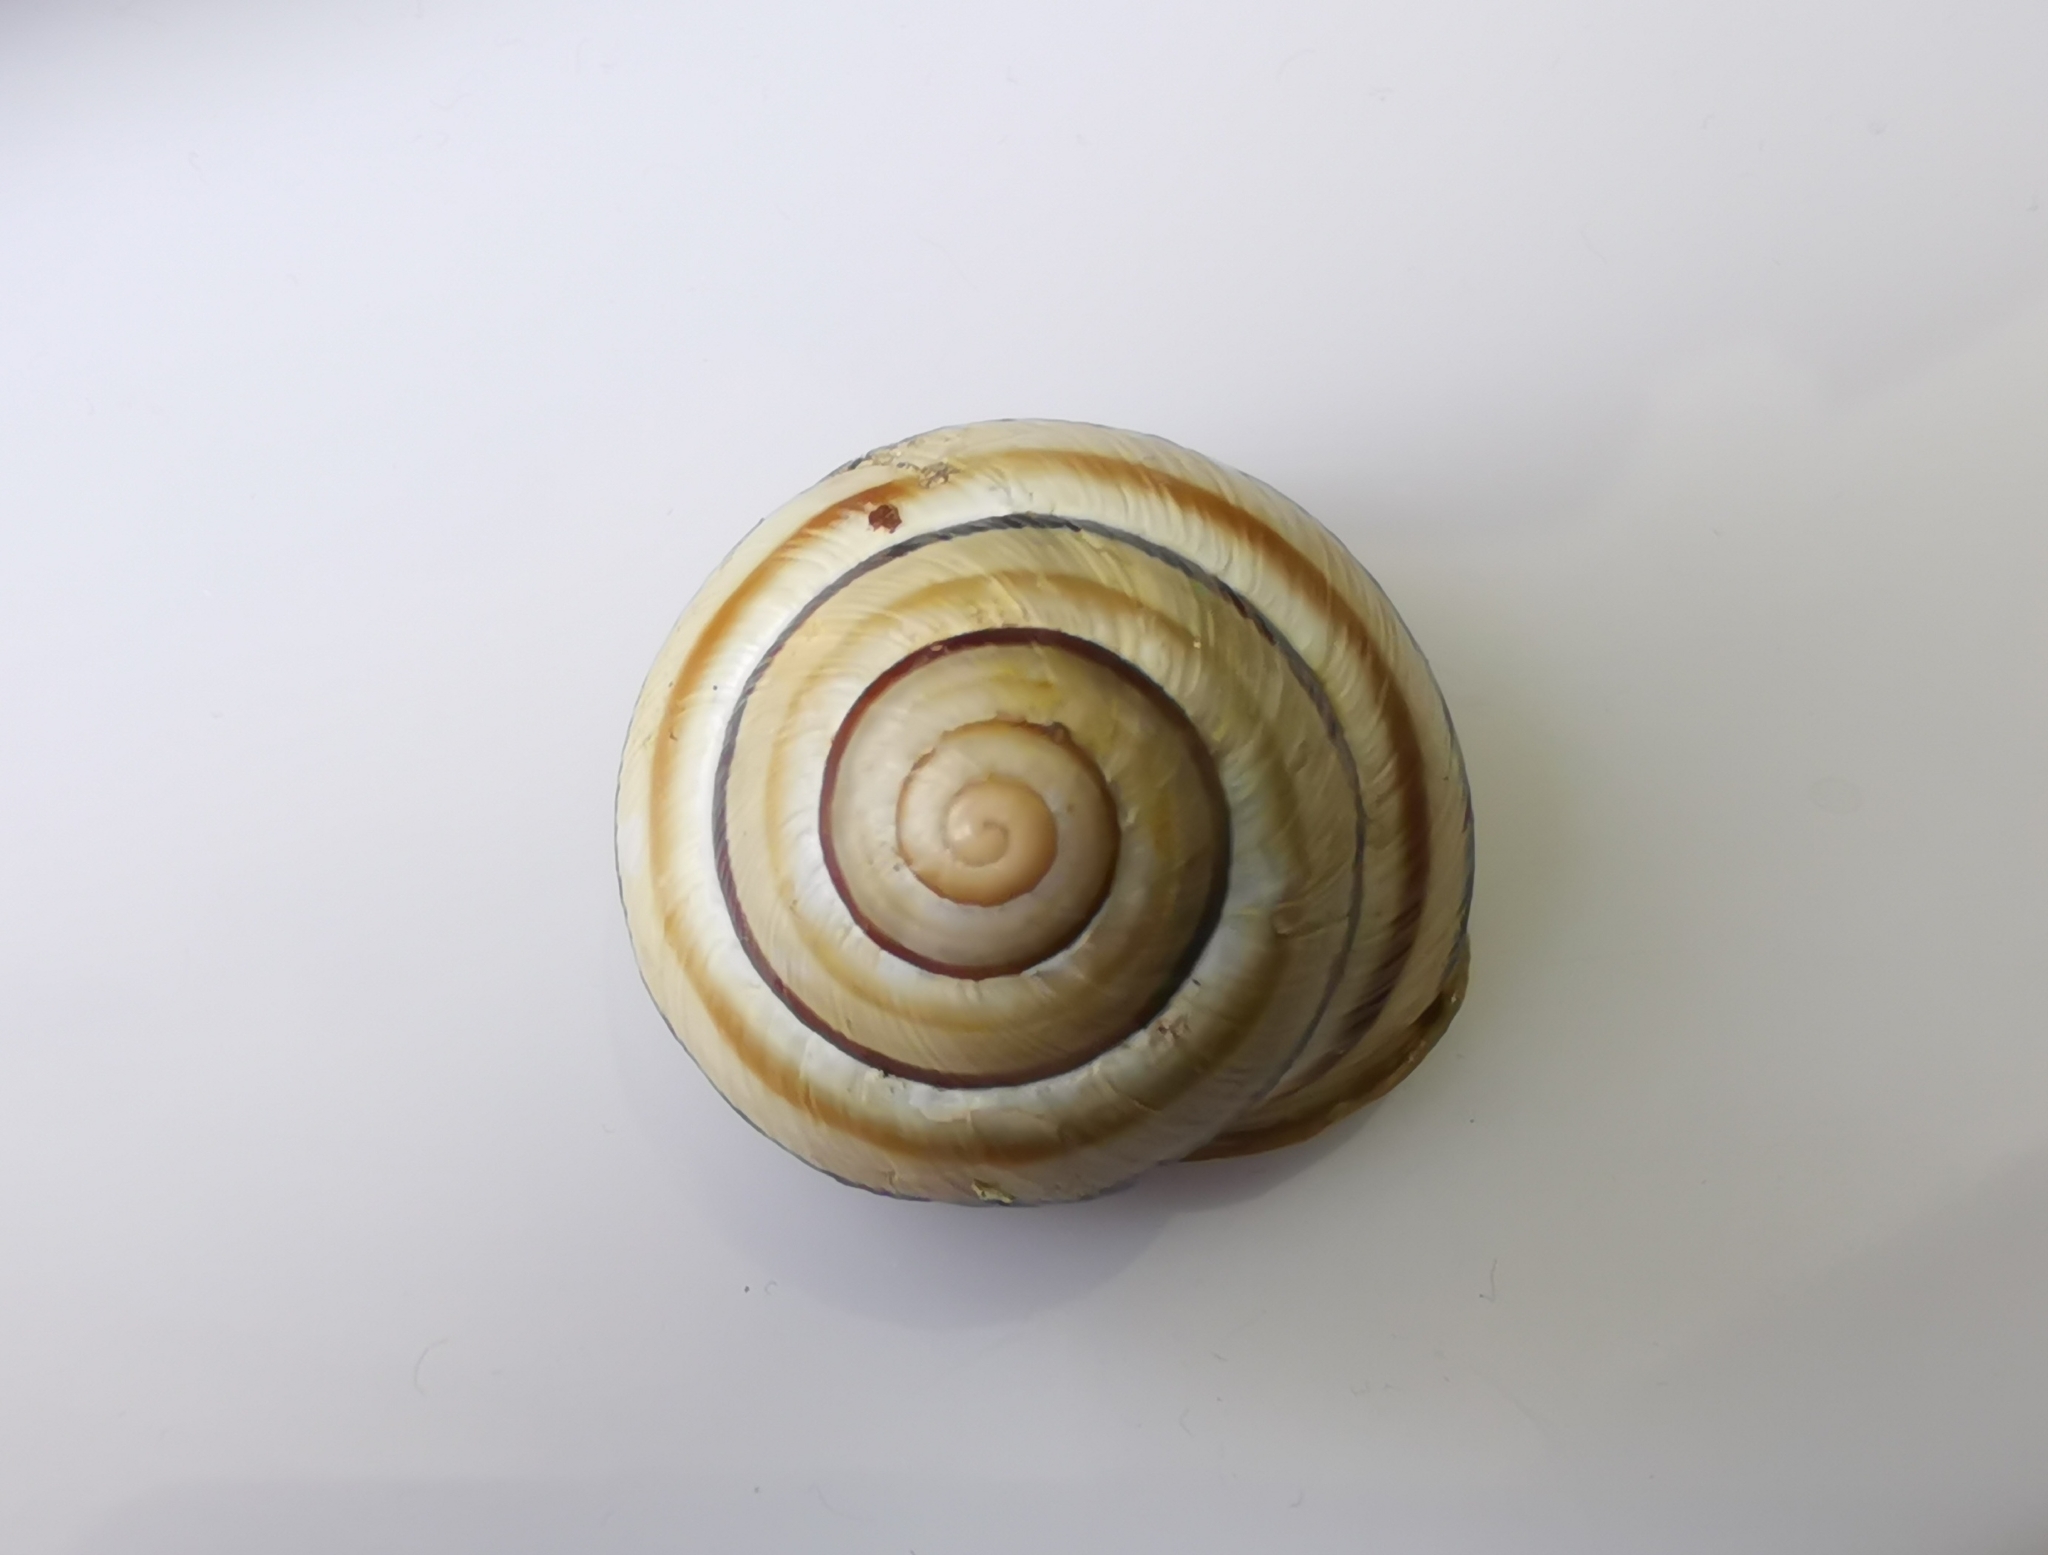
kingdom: Animalia
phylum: Mollusca
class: Gastropoda
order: Stylommatophora
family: Helicidae
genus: Caucasotachea
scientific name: Caucasotachea vindobonensis
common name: European helicid land snail
